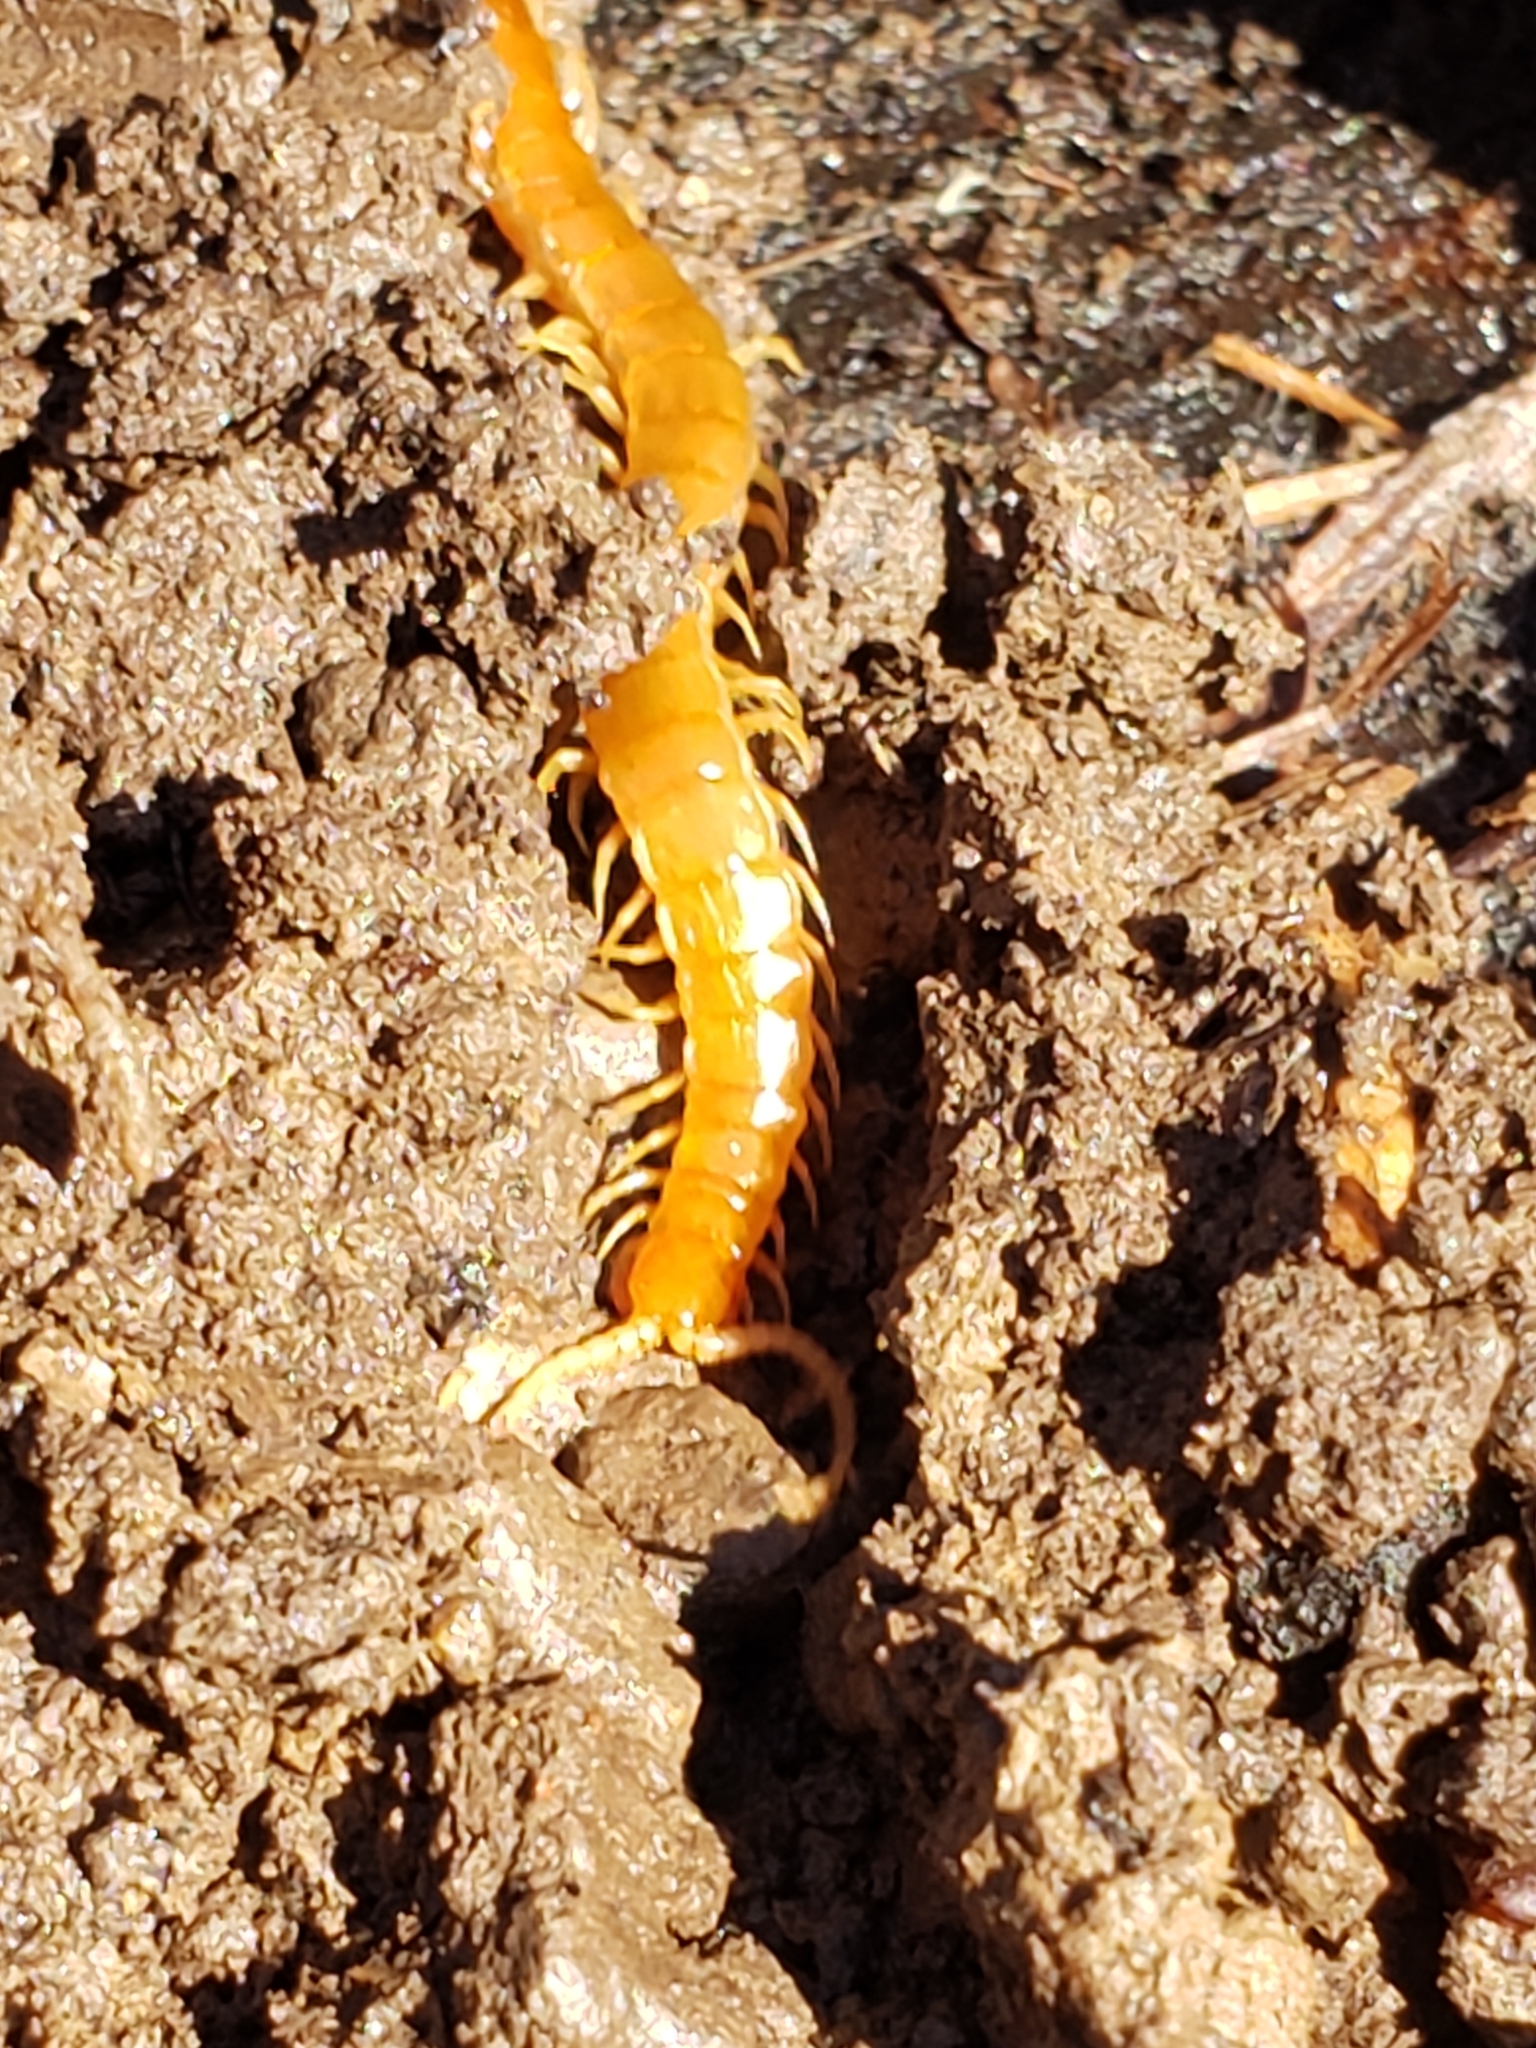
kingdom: Animalia
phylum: Arthropoda
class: Chilopoda
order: Scolopendromorpha
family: Scolopocryptopidae
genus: Scolopocryptops
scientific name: Scolopocryptops peregrinator
